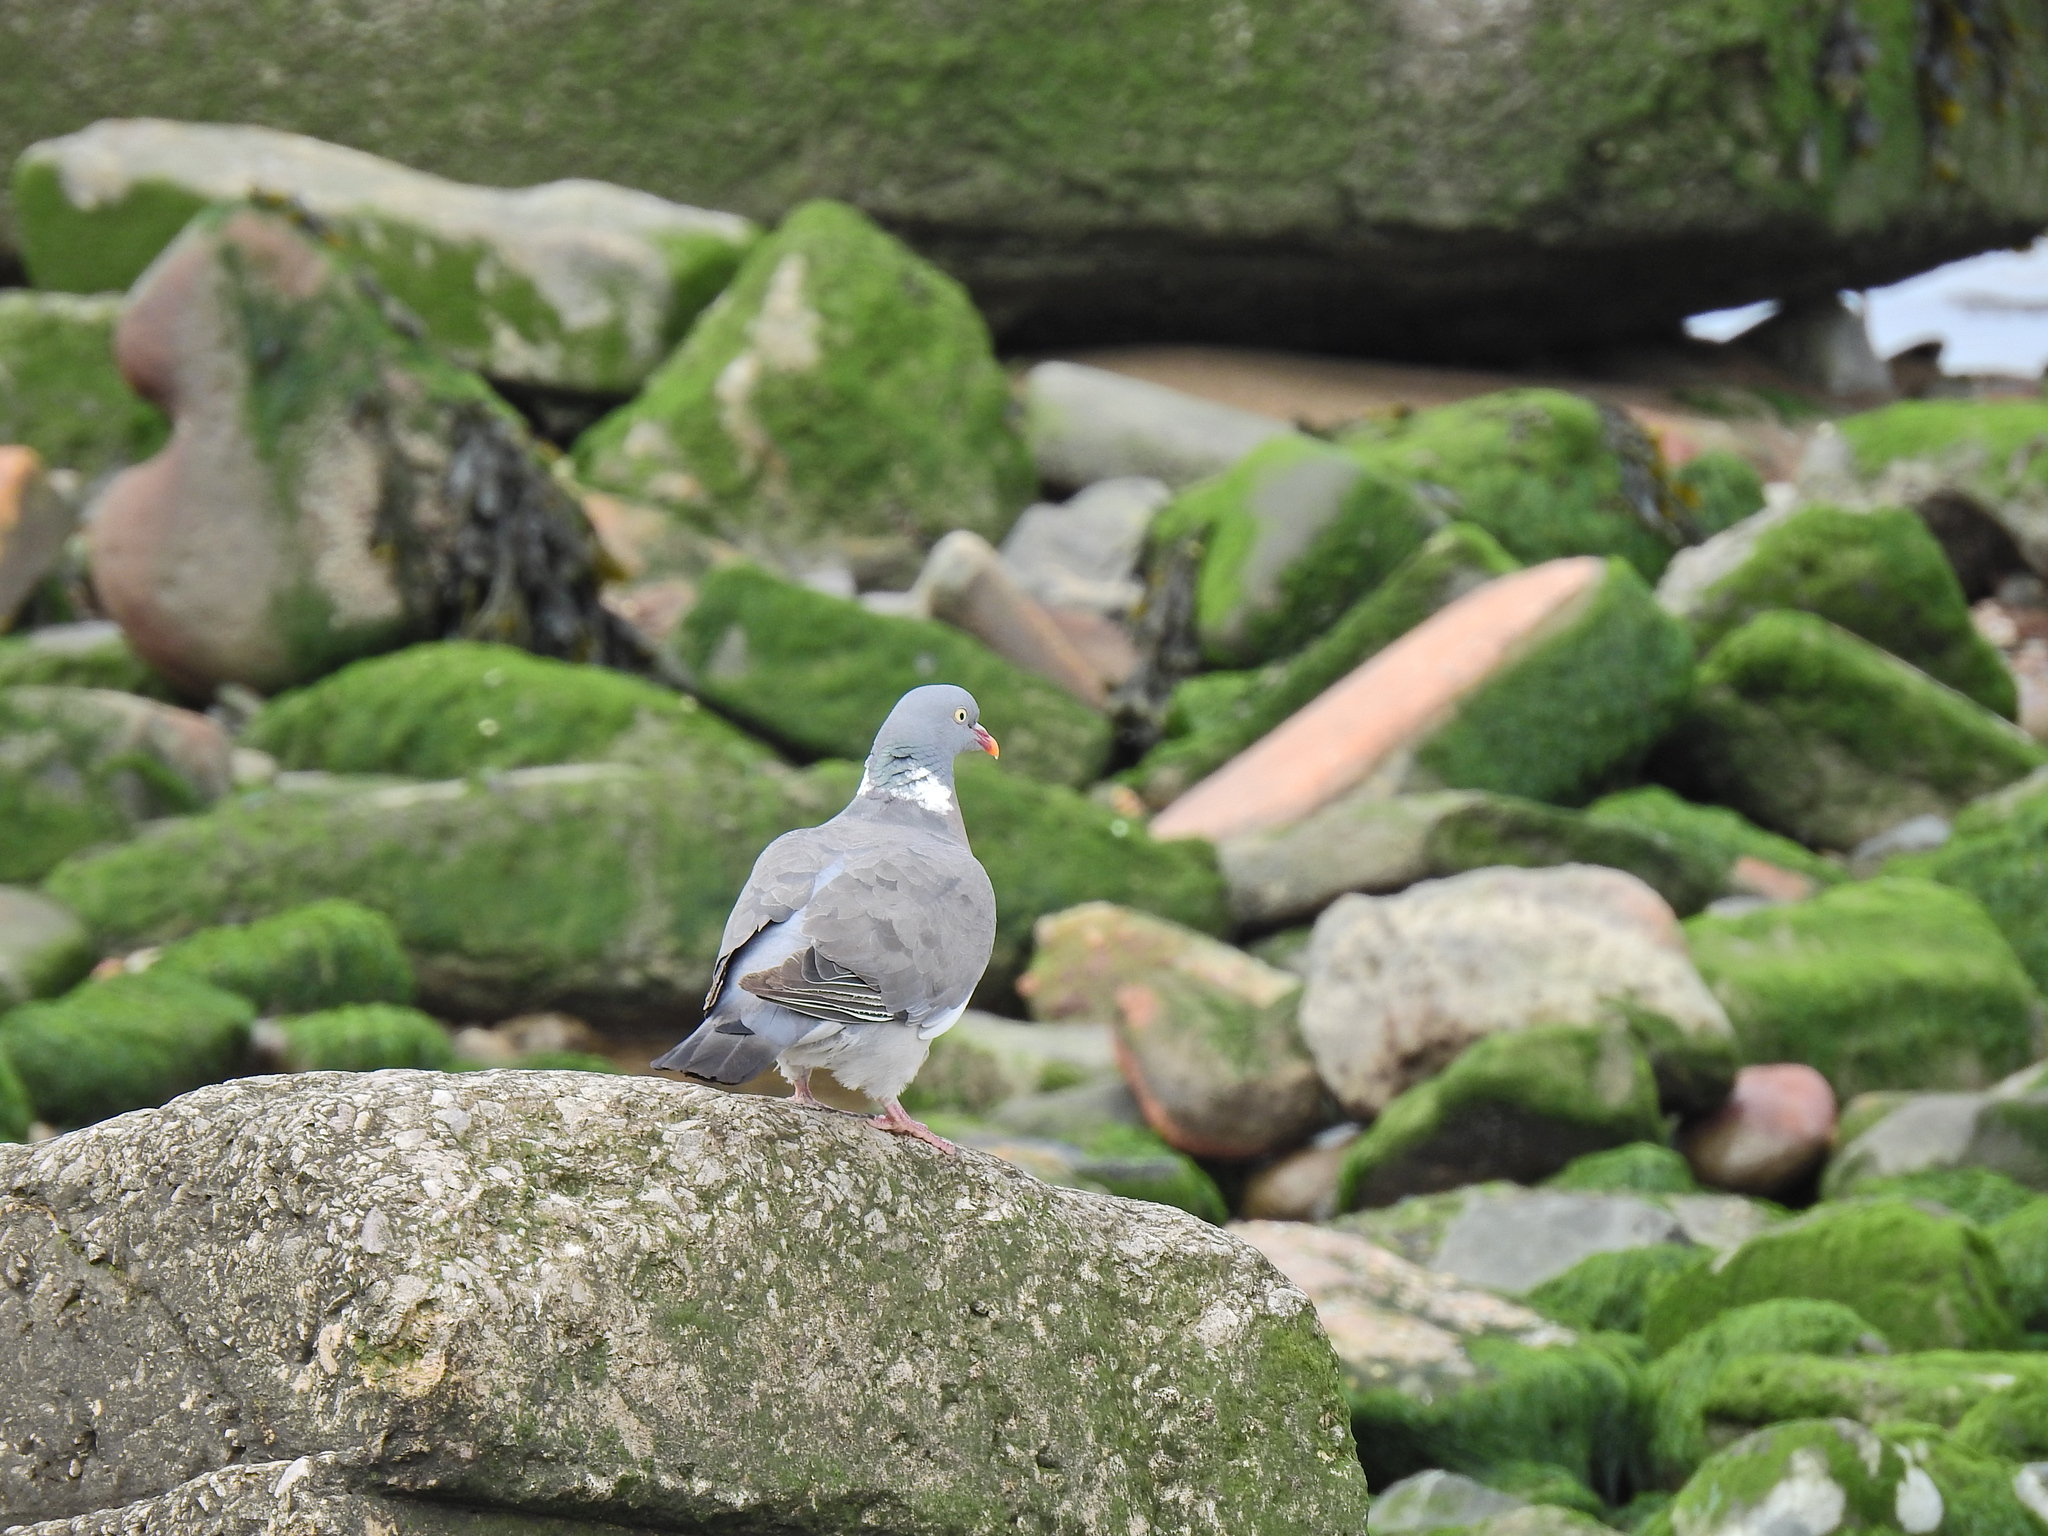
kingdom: Animalia
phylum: Chordata
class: Aves
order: Columbiformes
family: Columbidae
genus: Columba
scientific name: Columba palumbus
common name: Common wood pigeon
